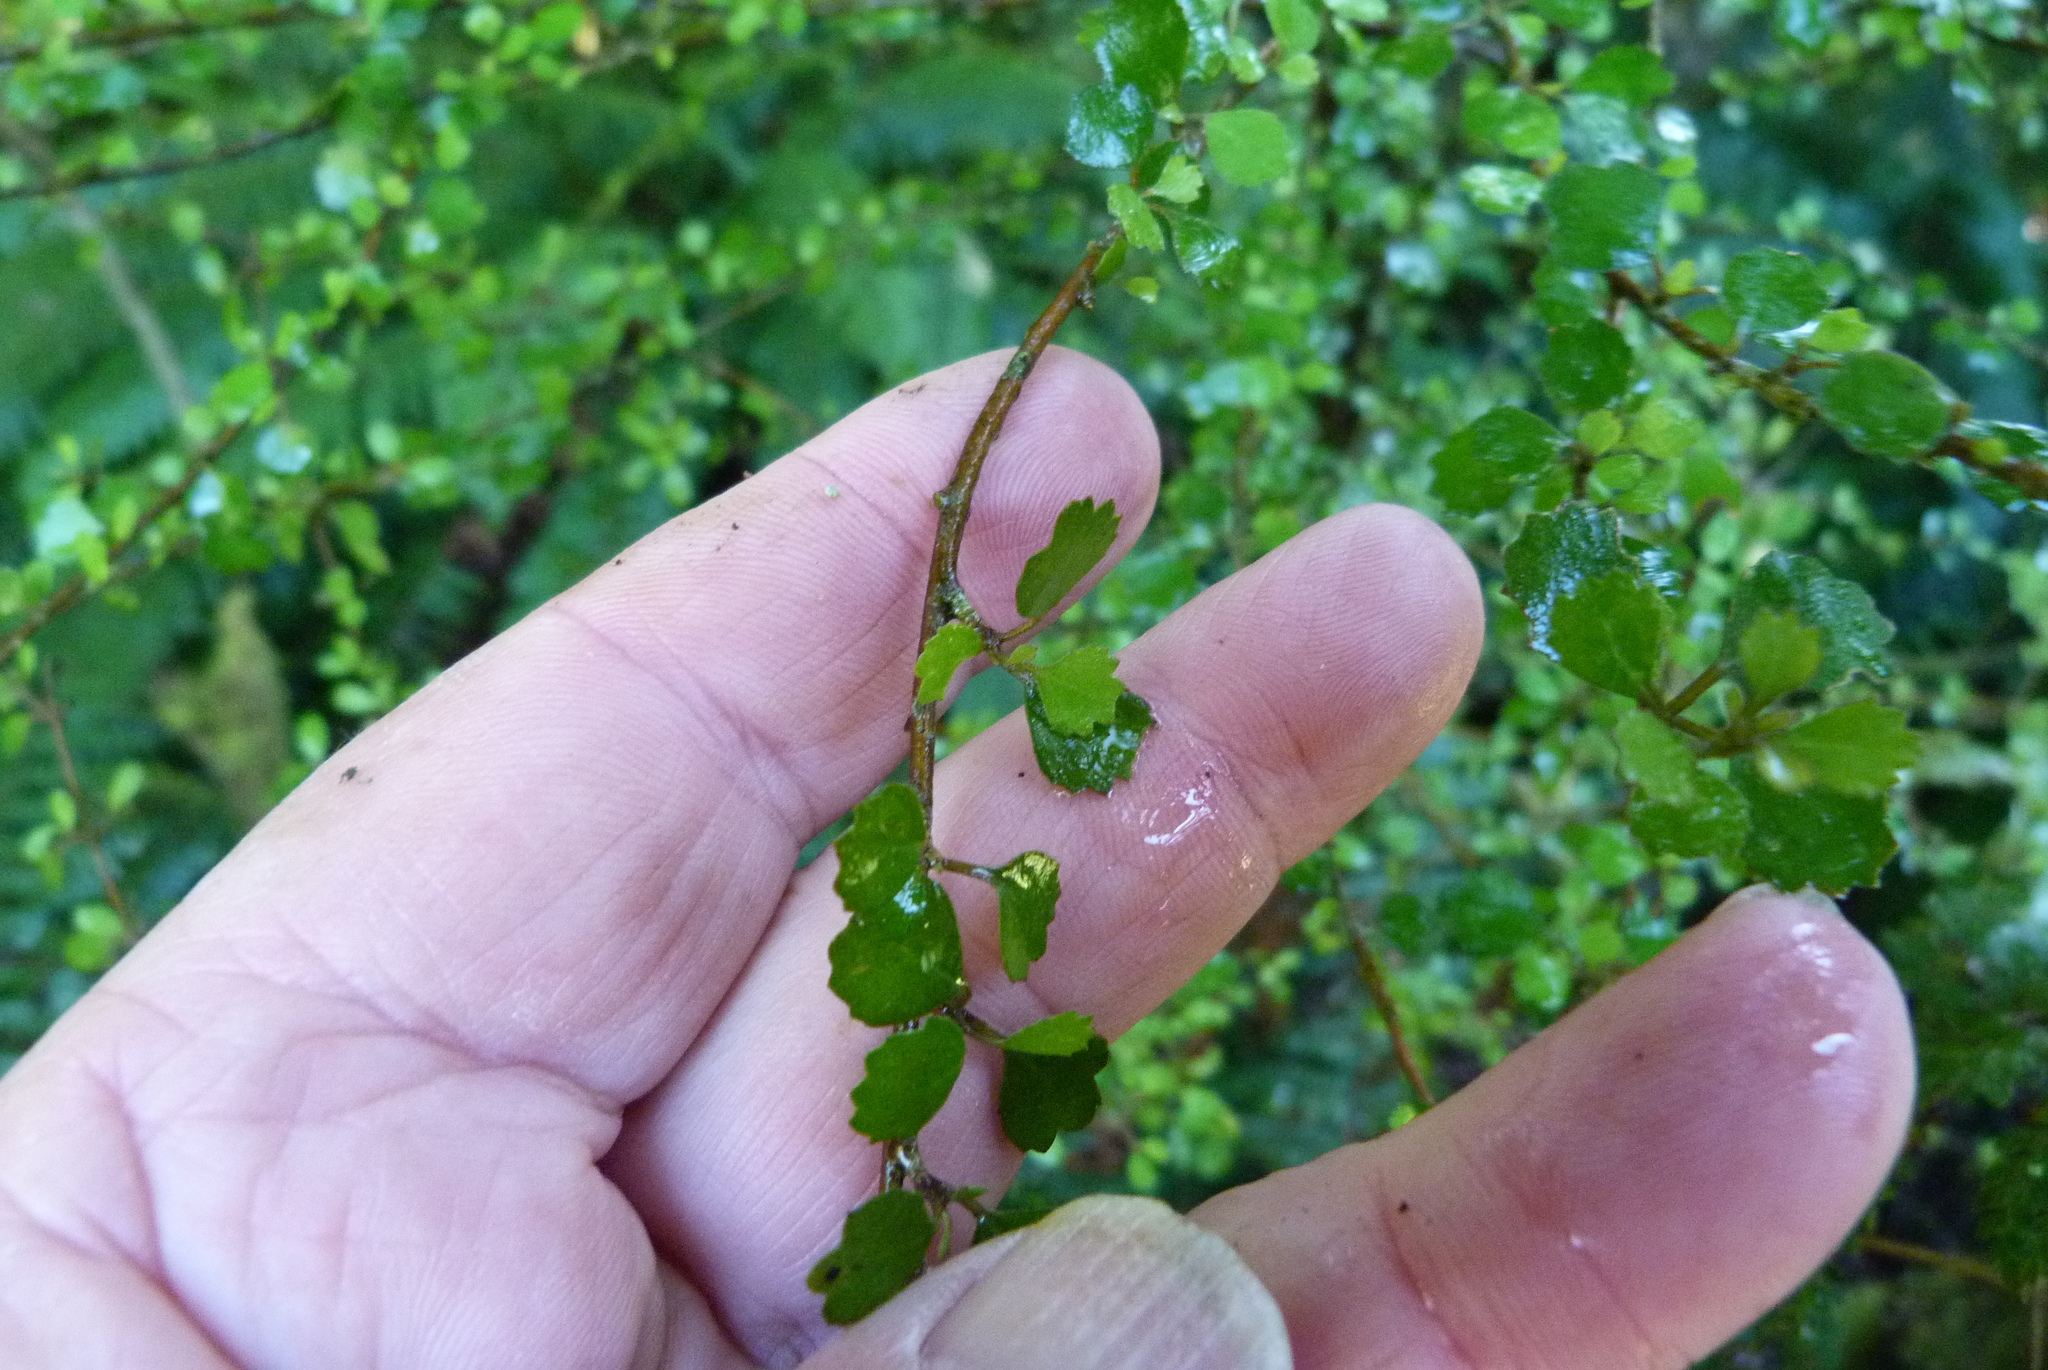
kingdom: Plantae
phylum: Tracheophyta
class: Magnoliopsida
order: Malvales
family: Malvaceae
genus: Hoheria
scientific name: Hoheria angustifolia
